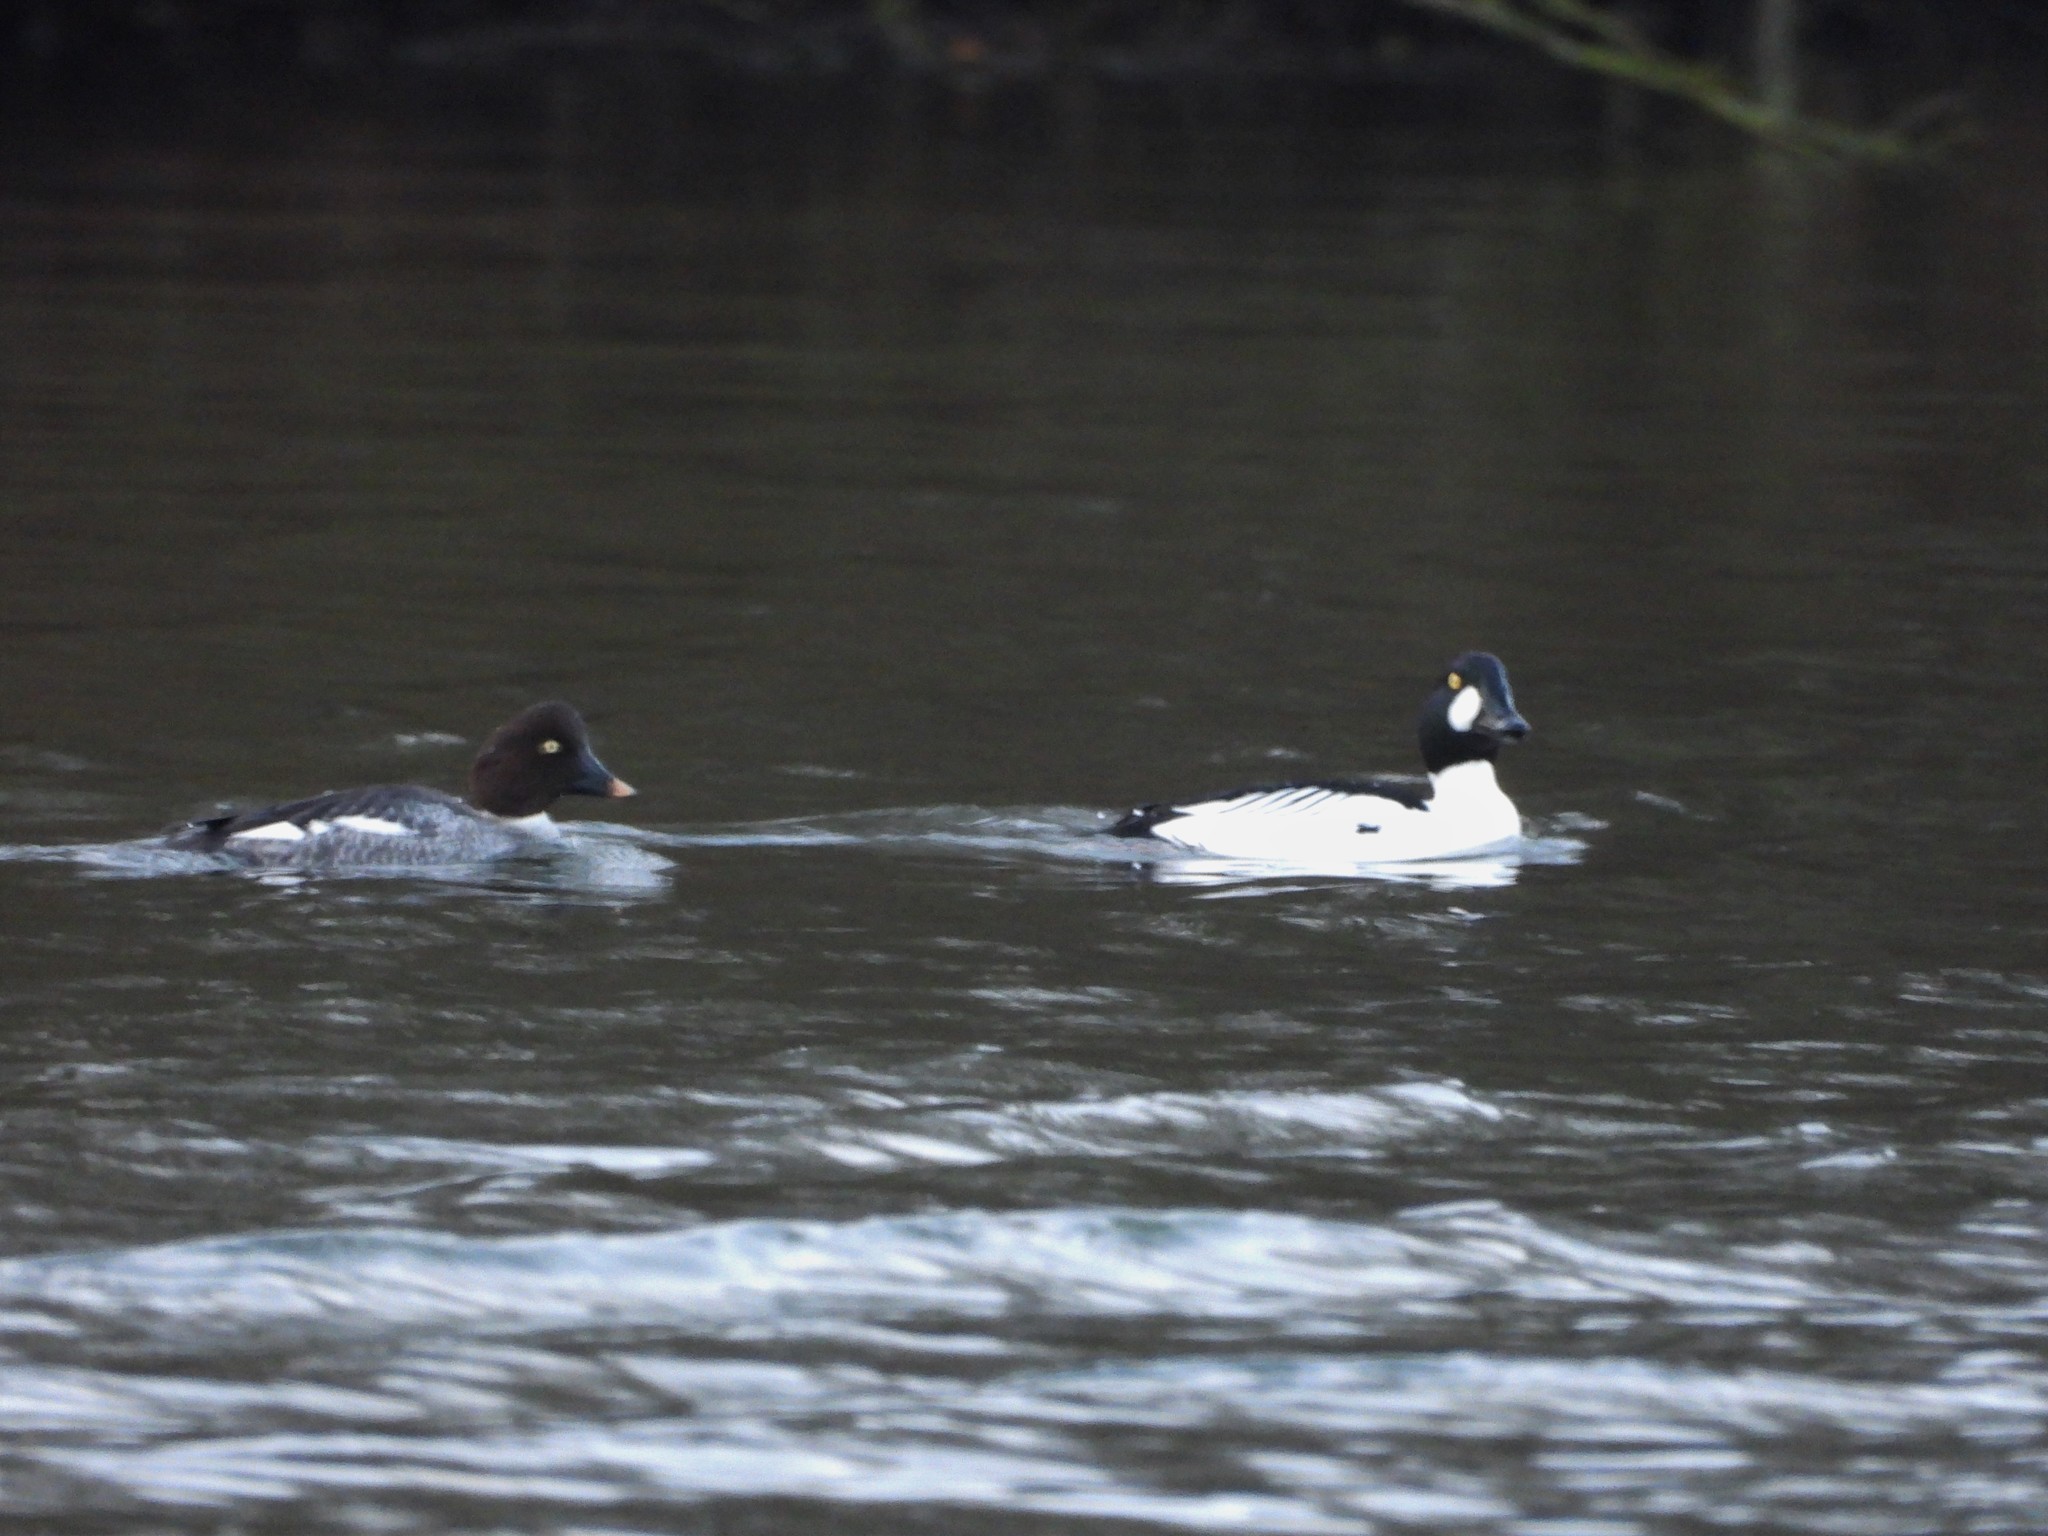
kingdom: Animalia
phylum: Chordata
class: Aves
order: Anseriformes
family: Anatidae
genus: Bucephala
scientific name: Bucephala clangula
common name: Common goldeneye
